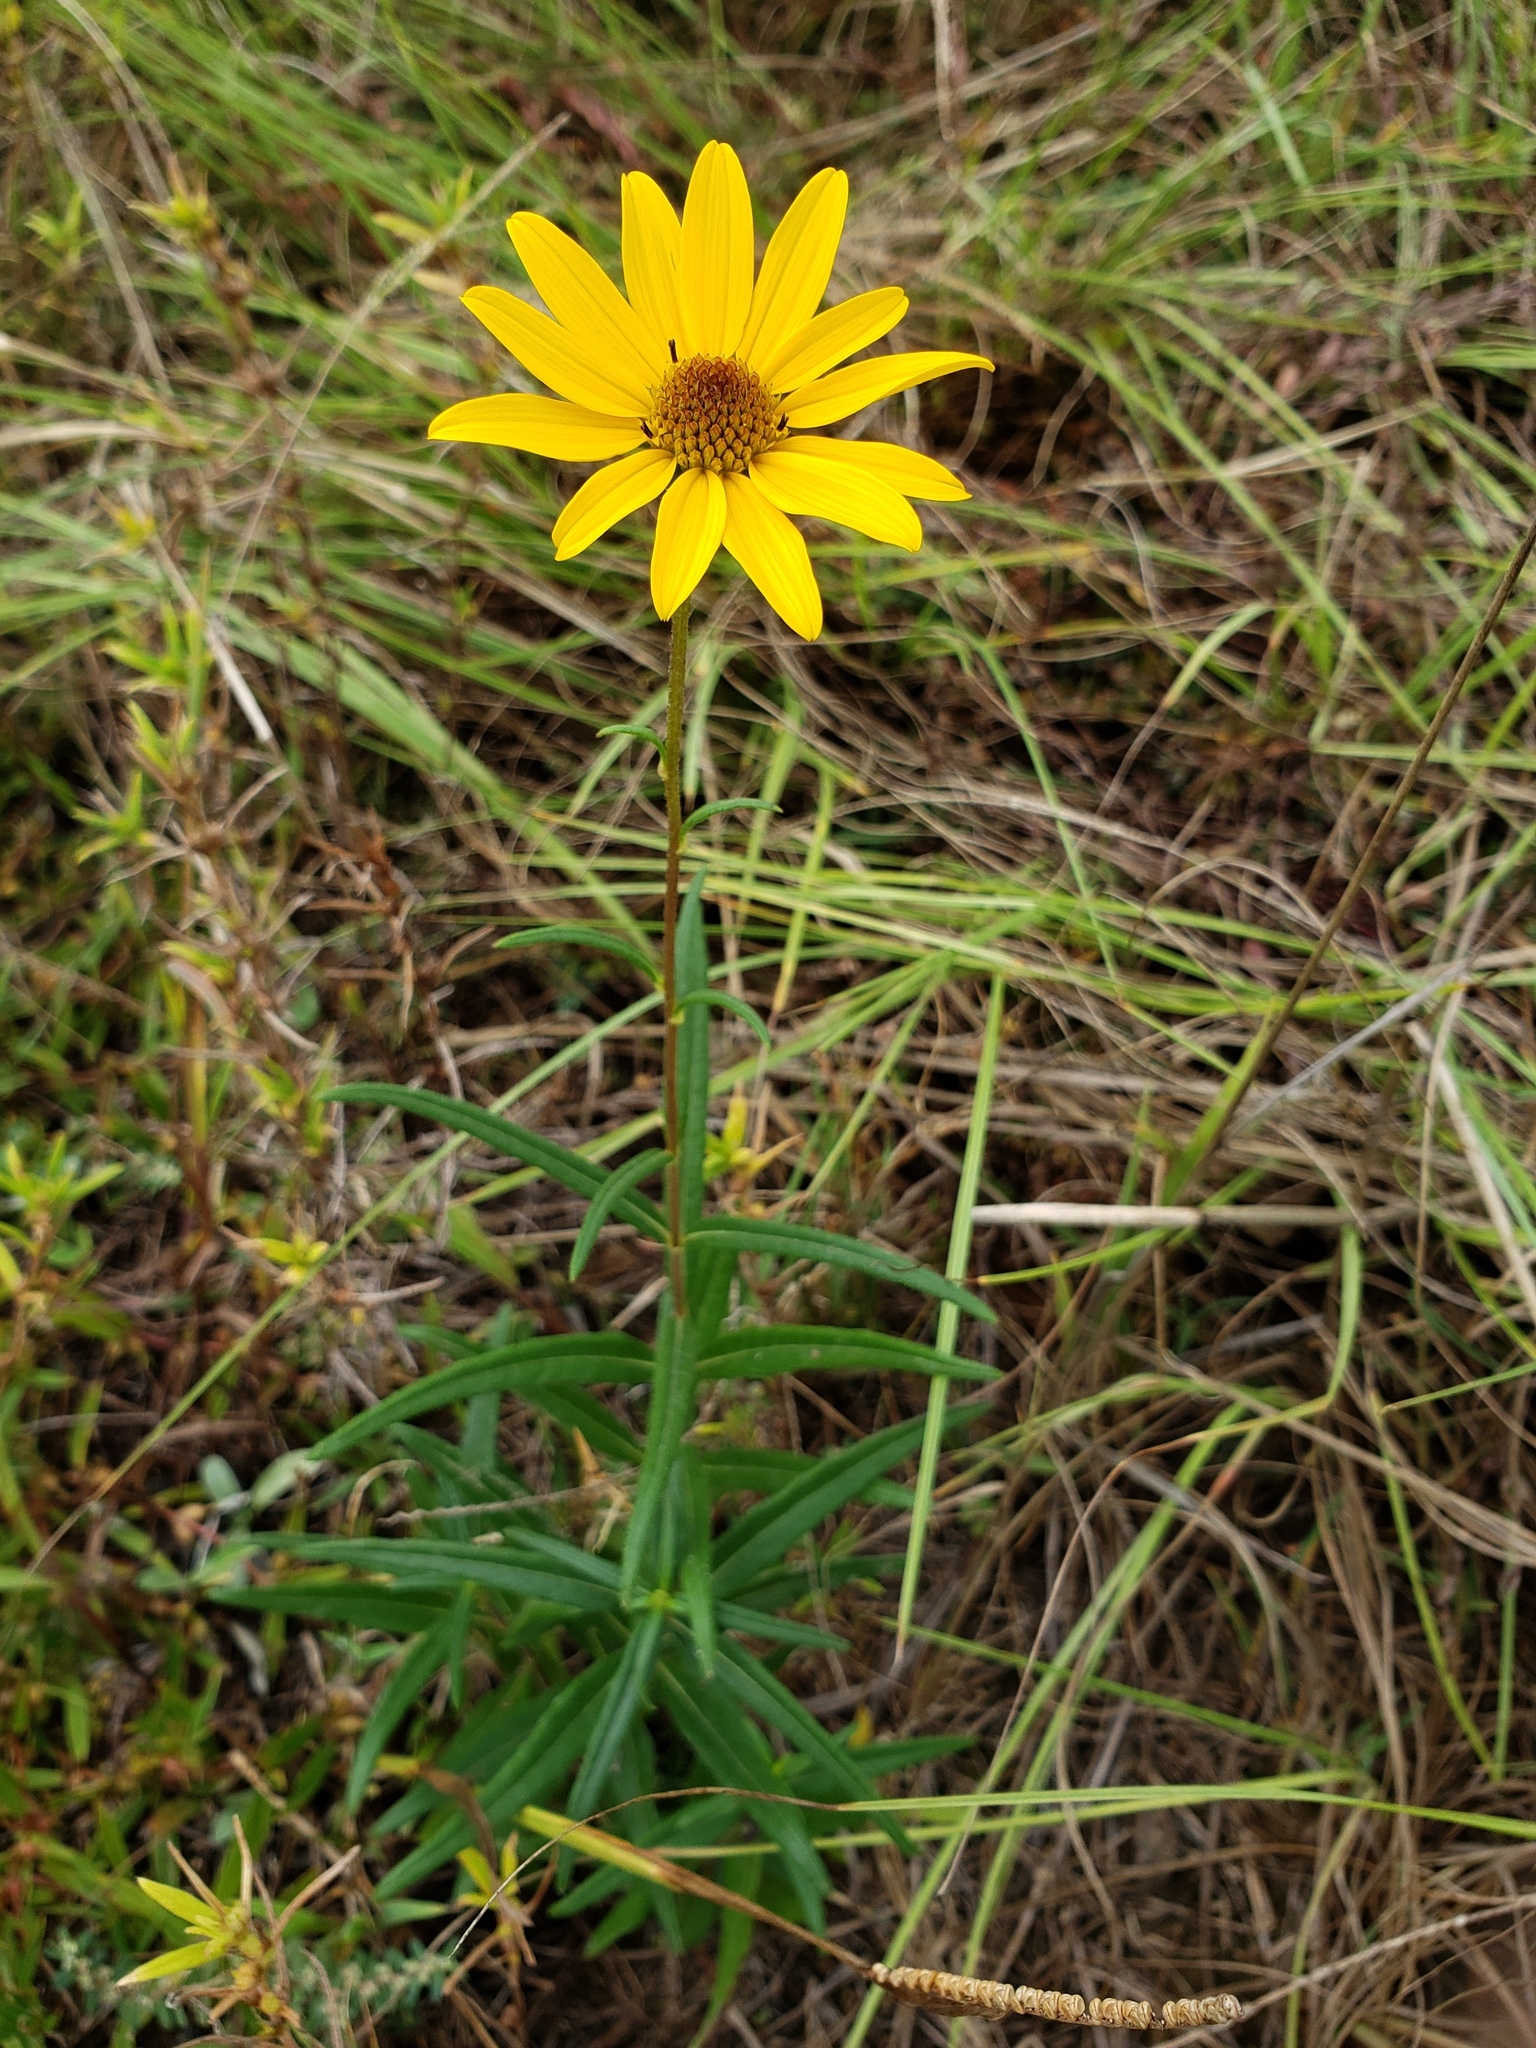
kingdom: Plantae
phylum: Tracheophyta
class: Magnoliopsida
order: Asterales
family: Asteraceae
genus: Helianthus
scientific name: Helianthus angustifolius
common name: Swamp sunflower
